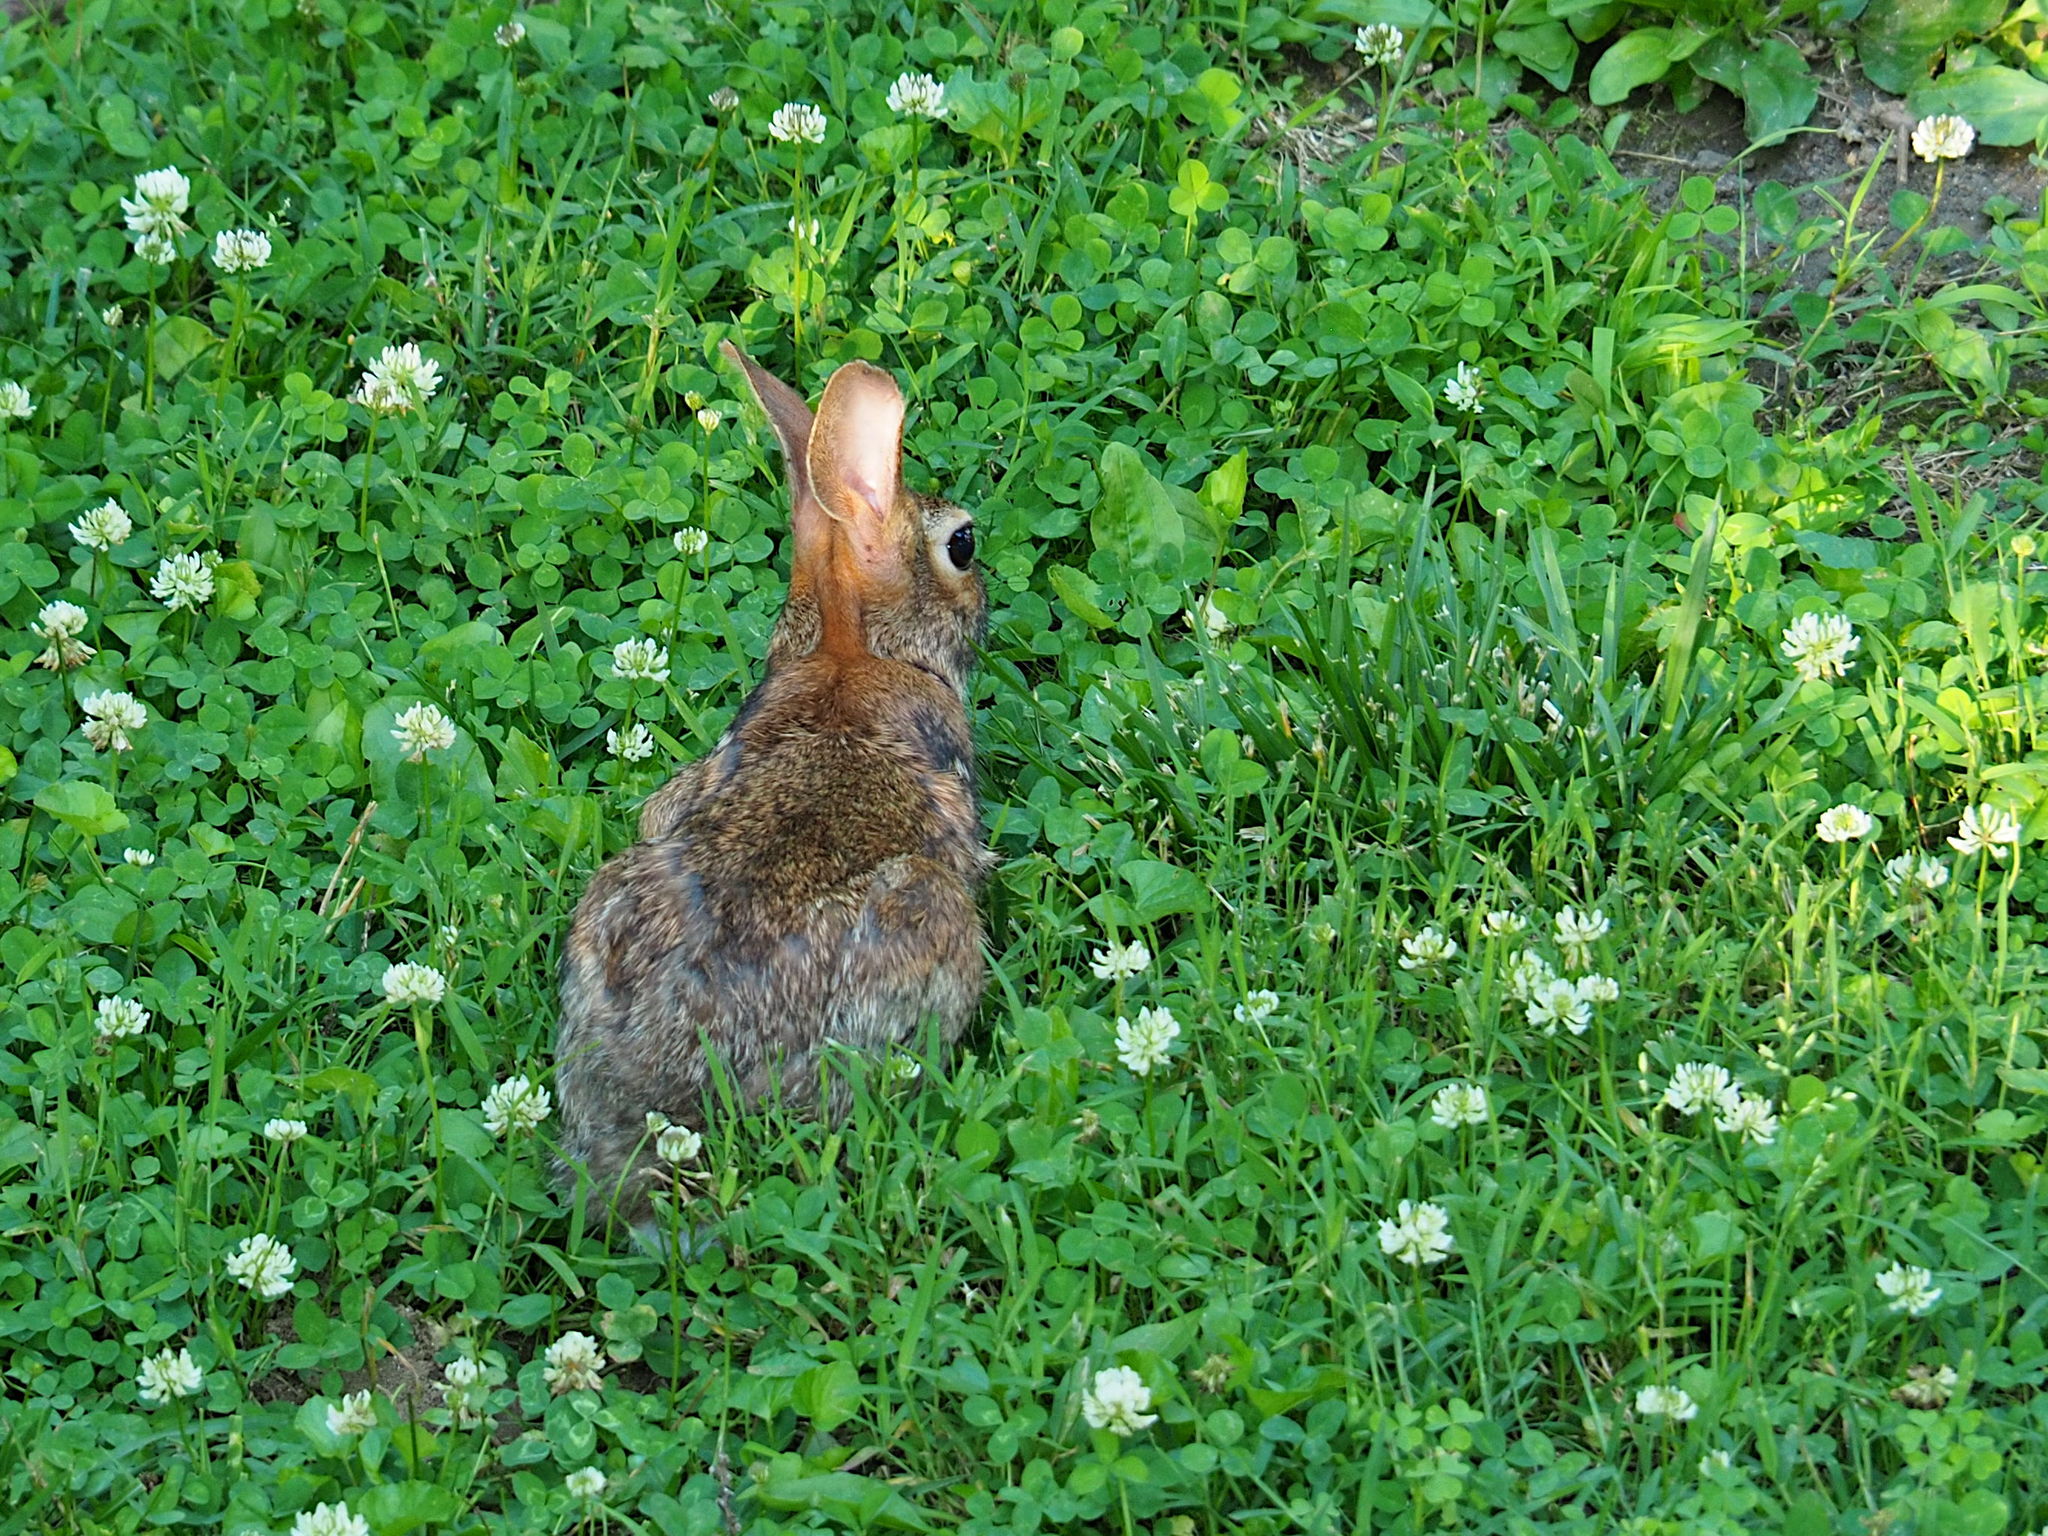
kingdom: Animalia
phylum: Chordata
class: Mammalia
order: Lagomorpha
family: Leporidae
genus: Sylvilagus
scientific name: Sylvilagus floridanus
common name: Eastern cottontail
